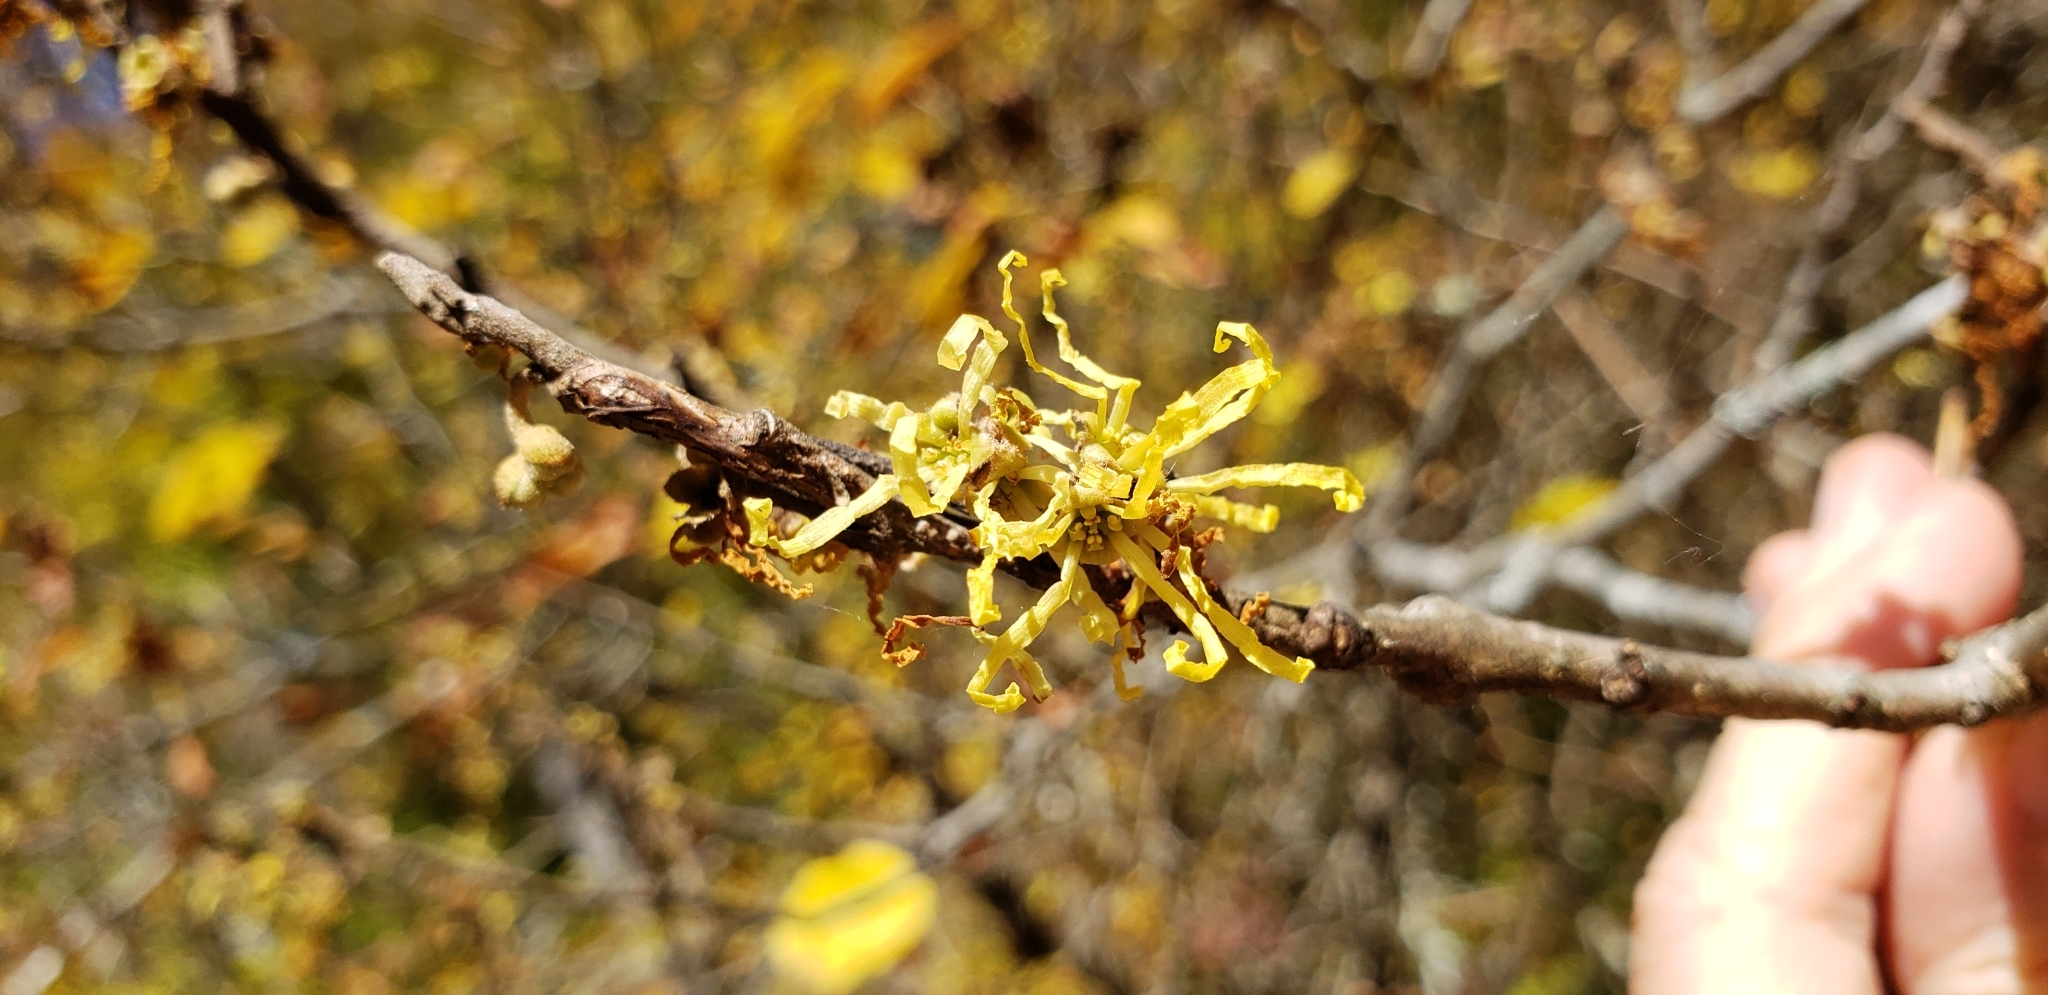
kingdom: Plantae
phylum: Tracheophyta
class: Magnoliopsida
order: Saxifragales
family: Hamamelidaceae
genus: Hamamelis
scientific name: Hamamelis virginiana
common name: Witch-hazel
